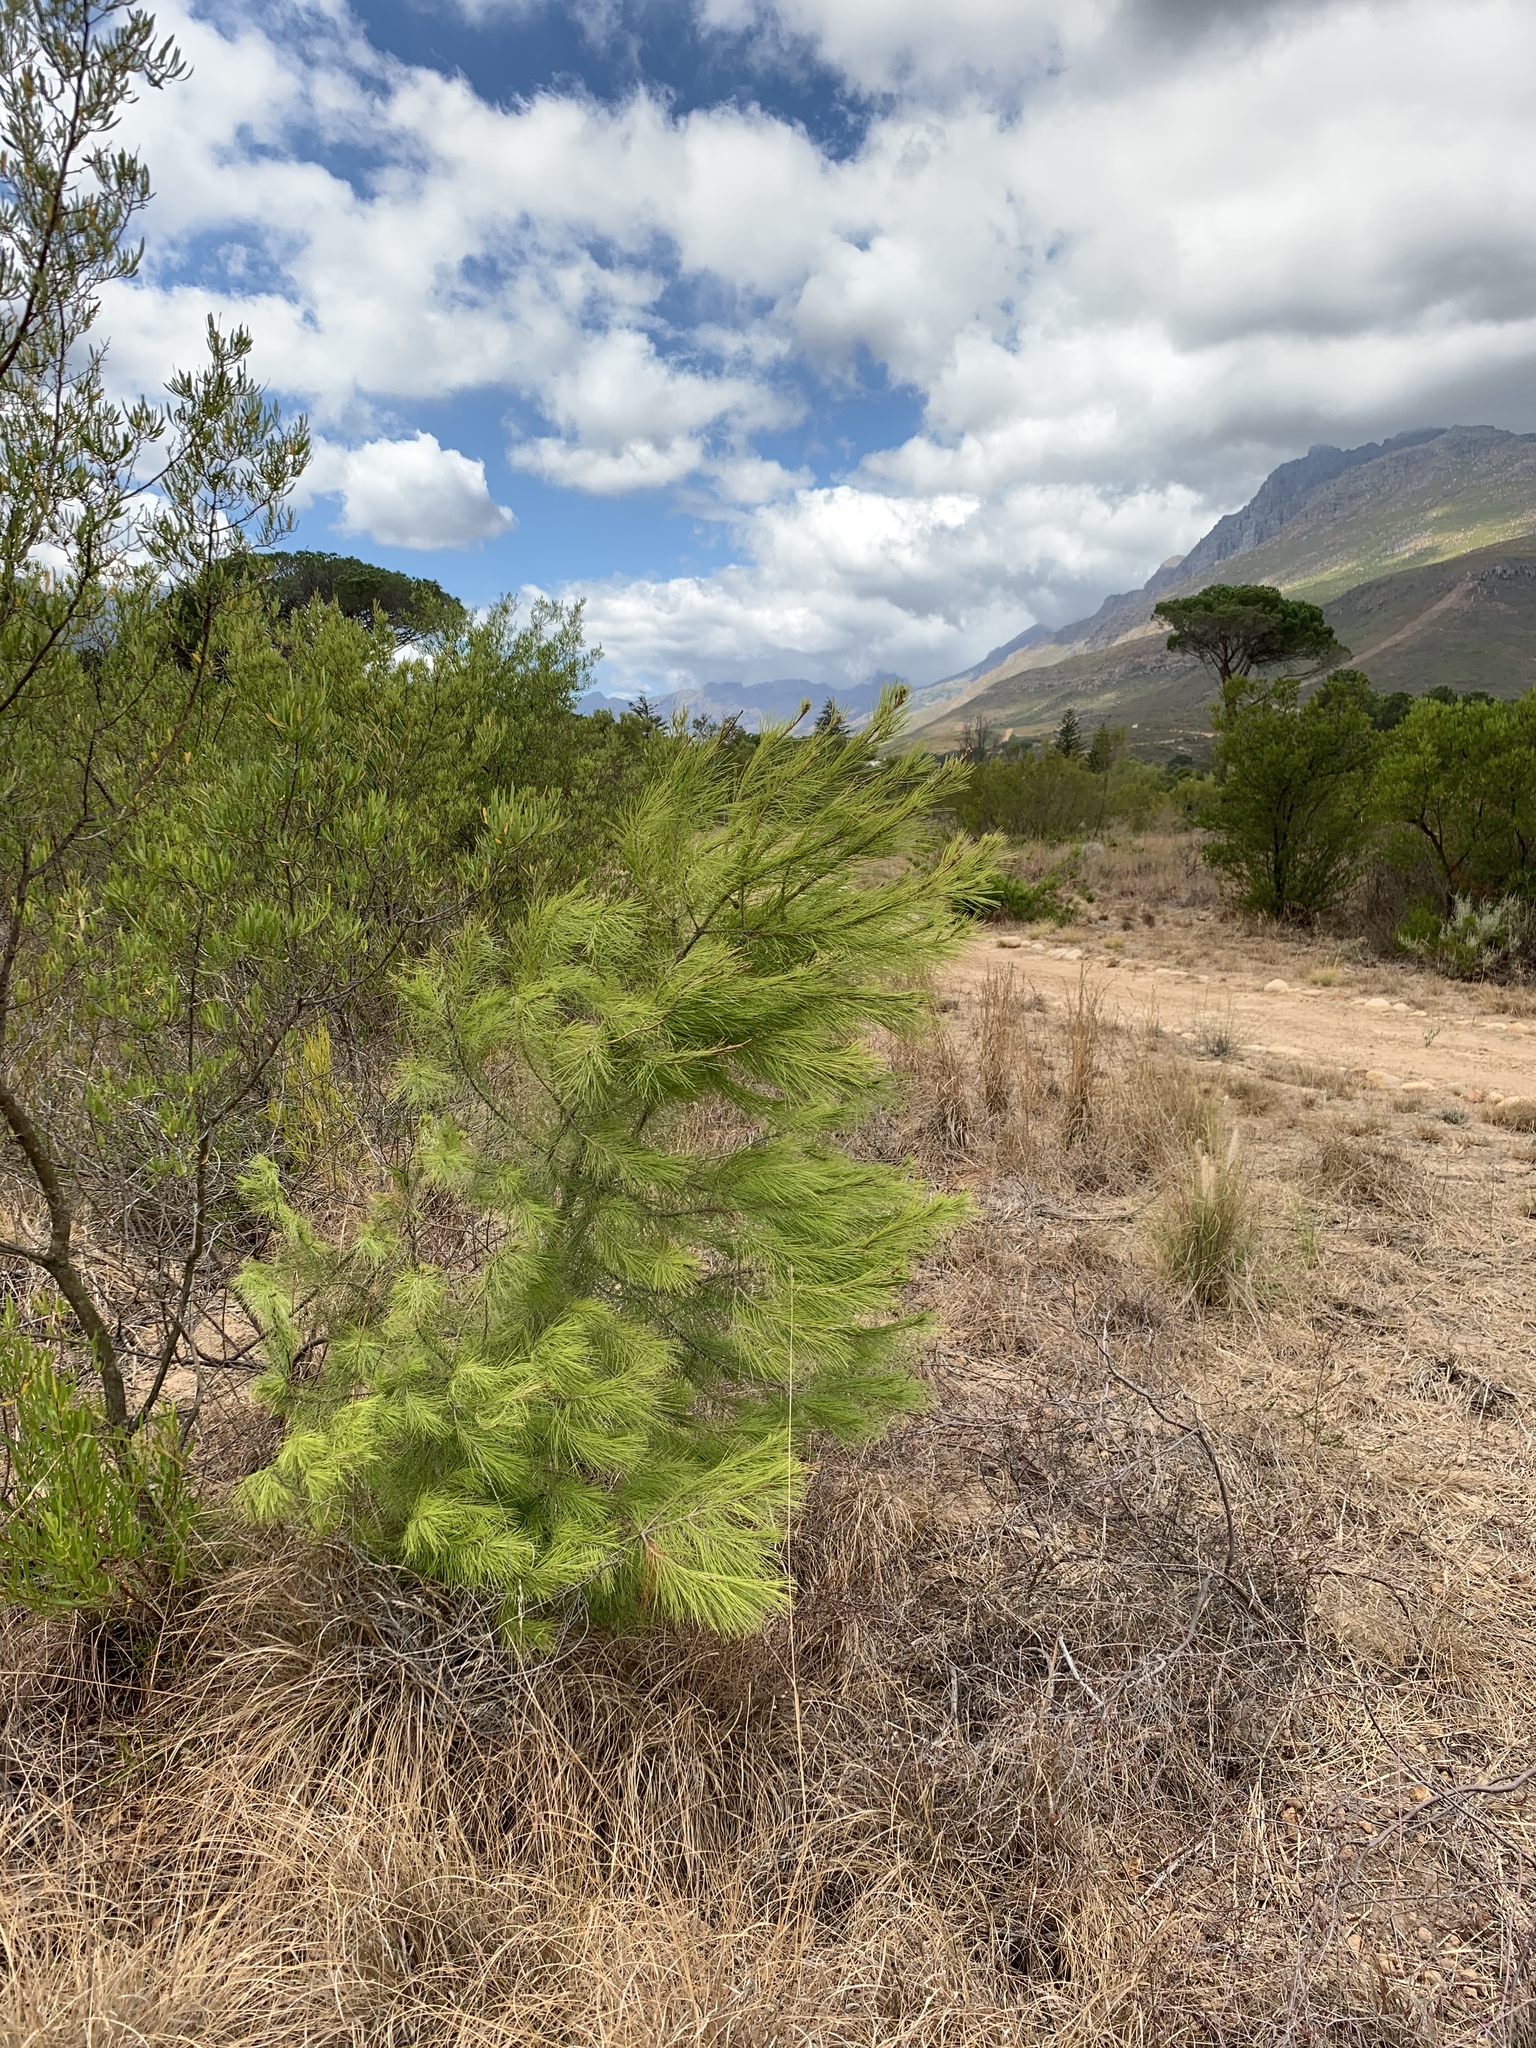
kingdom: Plantae
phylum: Tracheophyta
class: Pinopsida
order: Pinales
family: Pinaceae
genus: Pinus
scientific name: Pinus halepensis
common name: Aleppo pine
